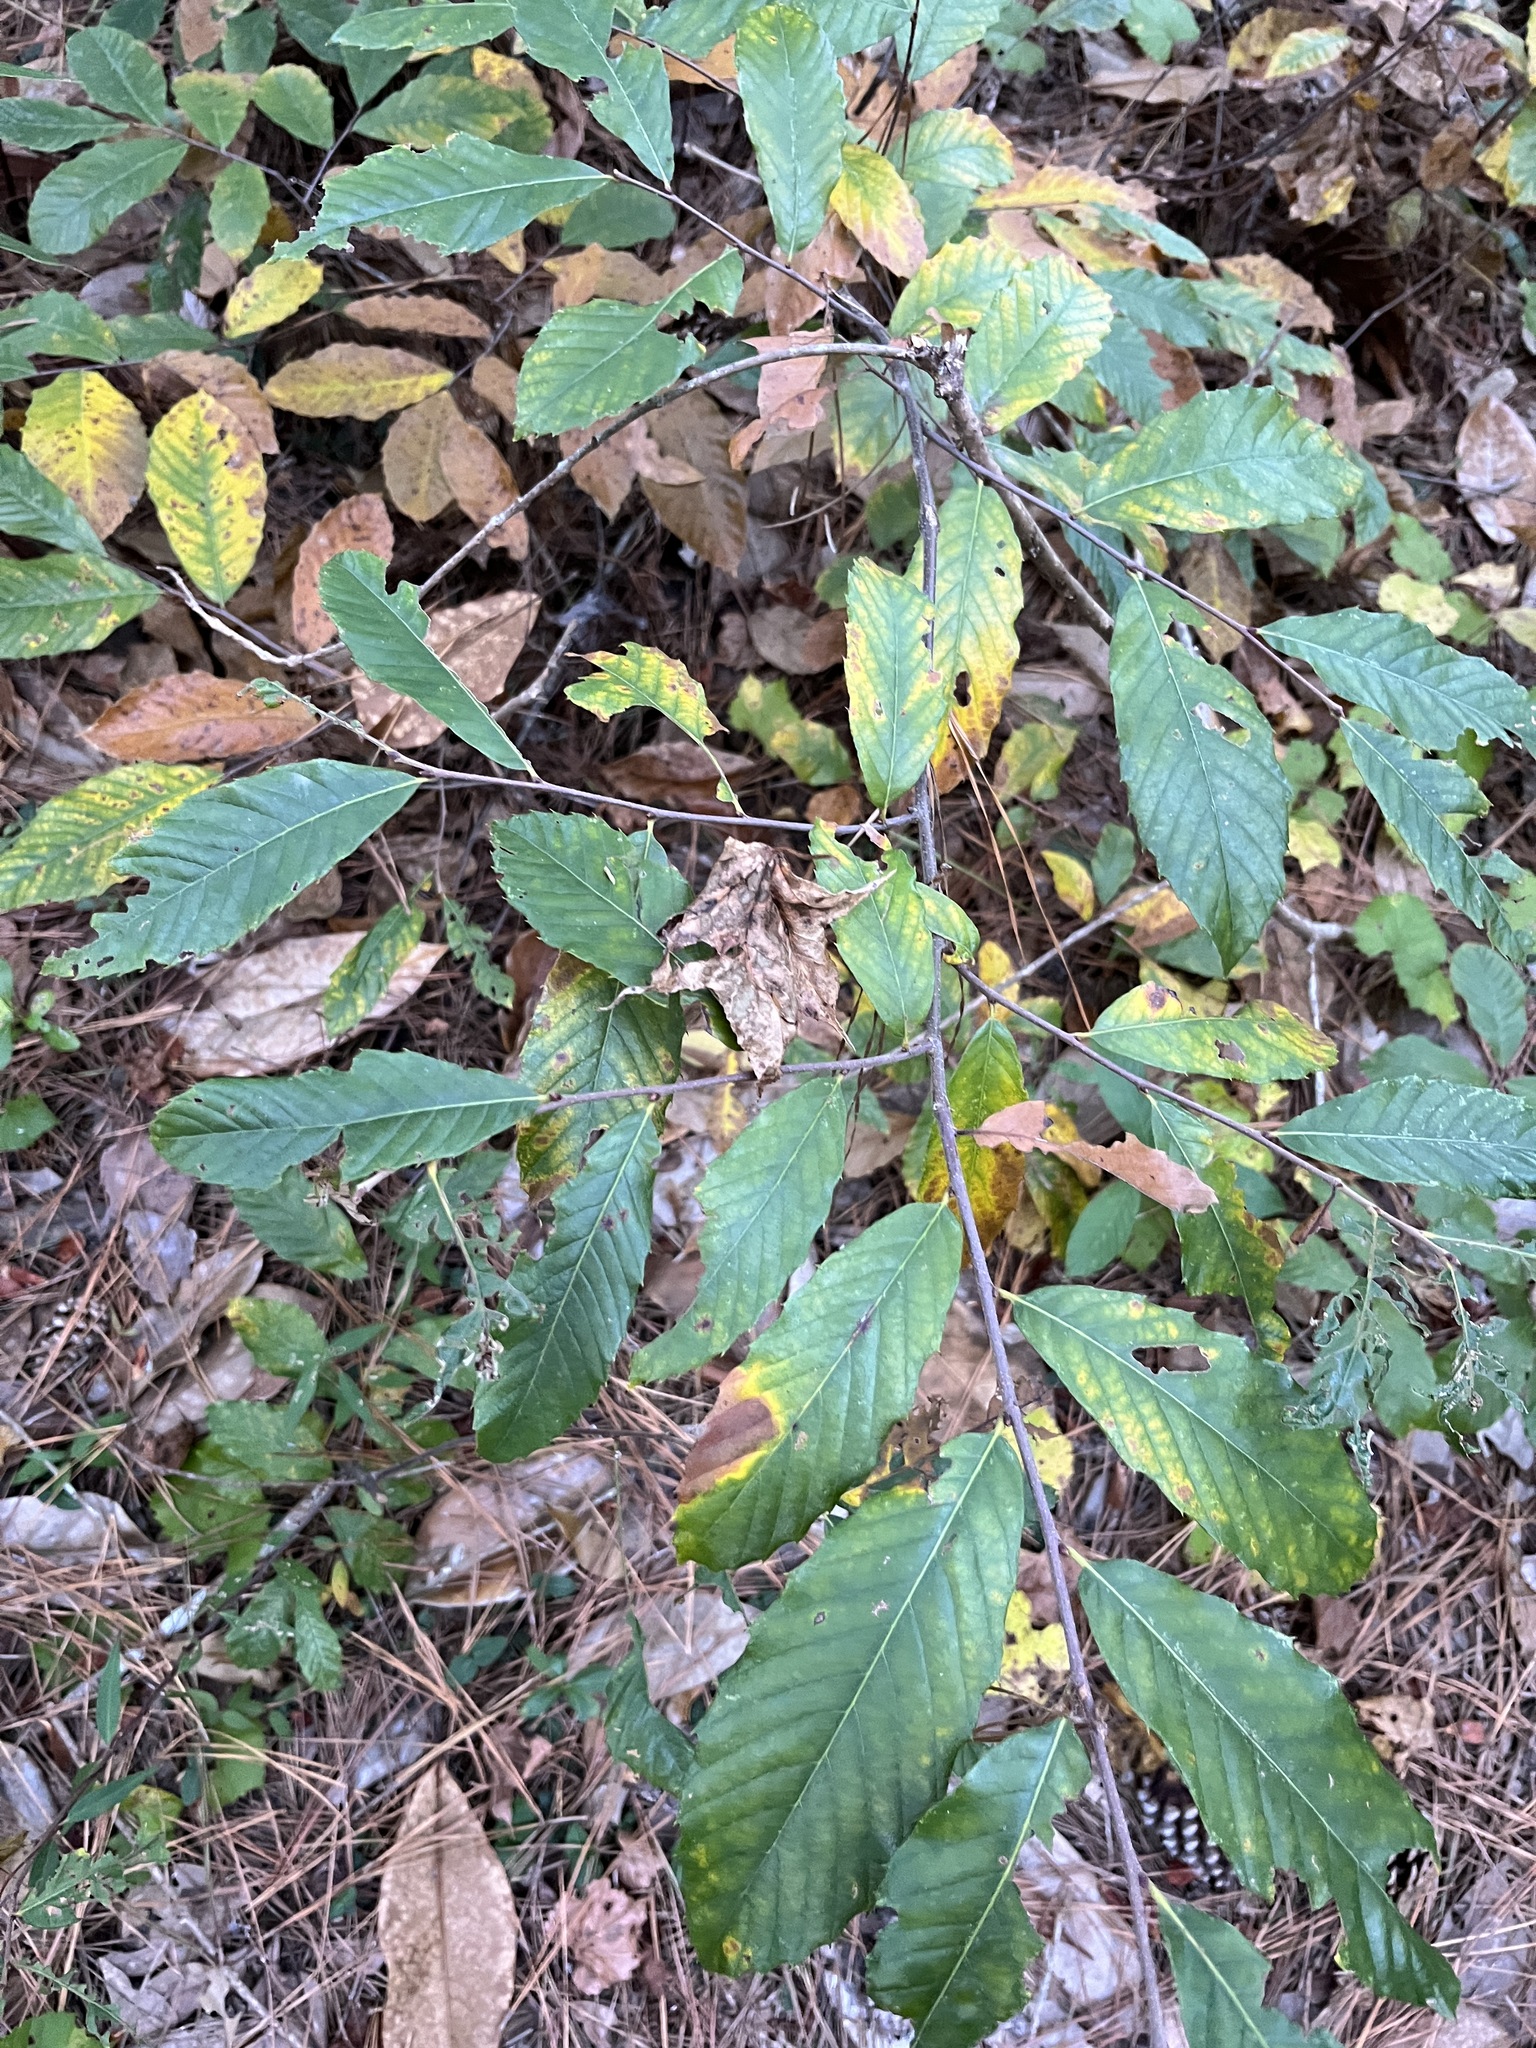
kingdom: Plantae
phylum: Tracheophyta
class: Magnoliopsida
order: Fagales
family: Fagaceae
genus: Castanea
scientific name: Castanea pumila
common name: Chinkapin
